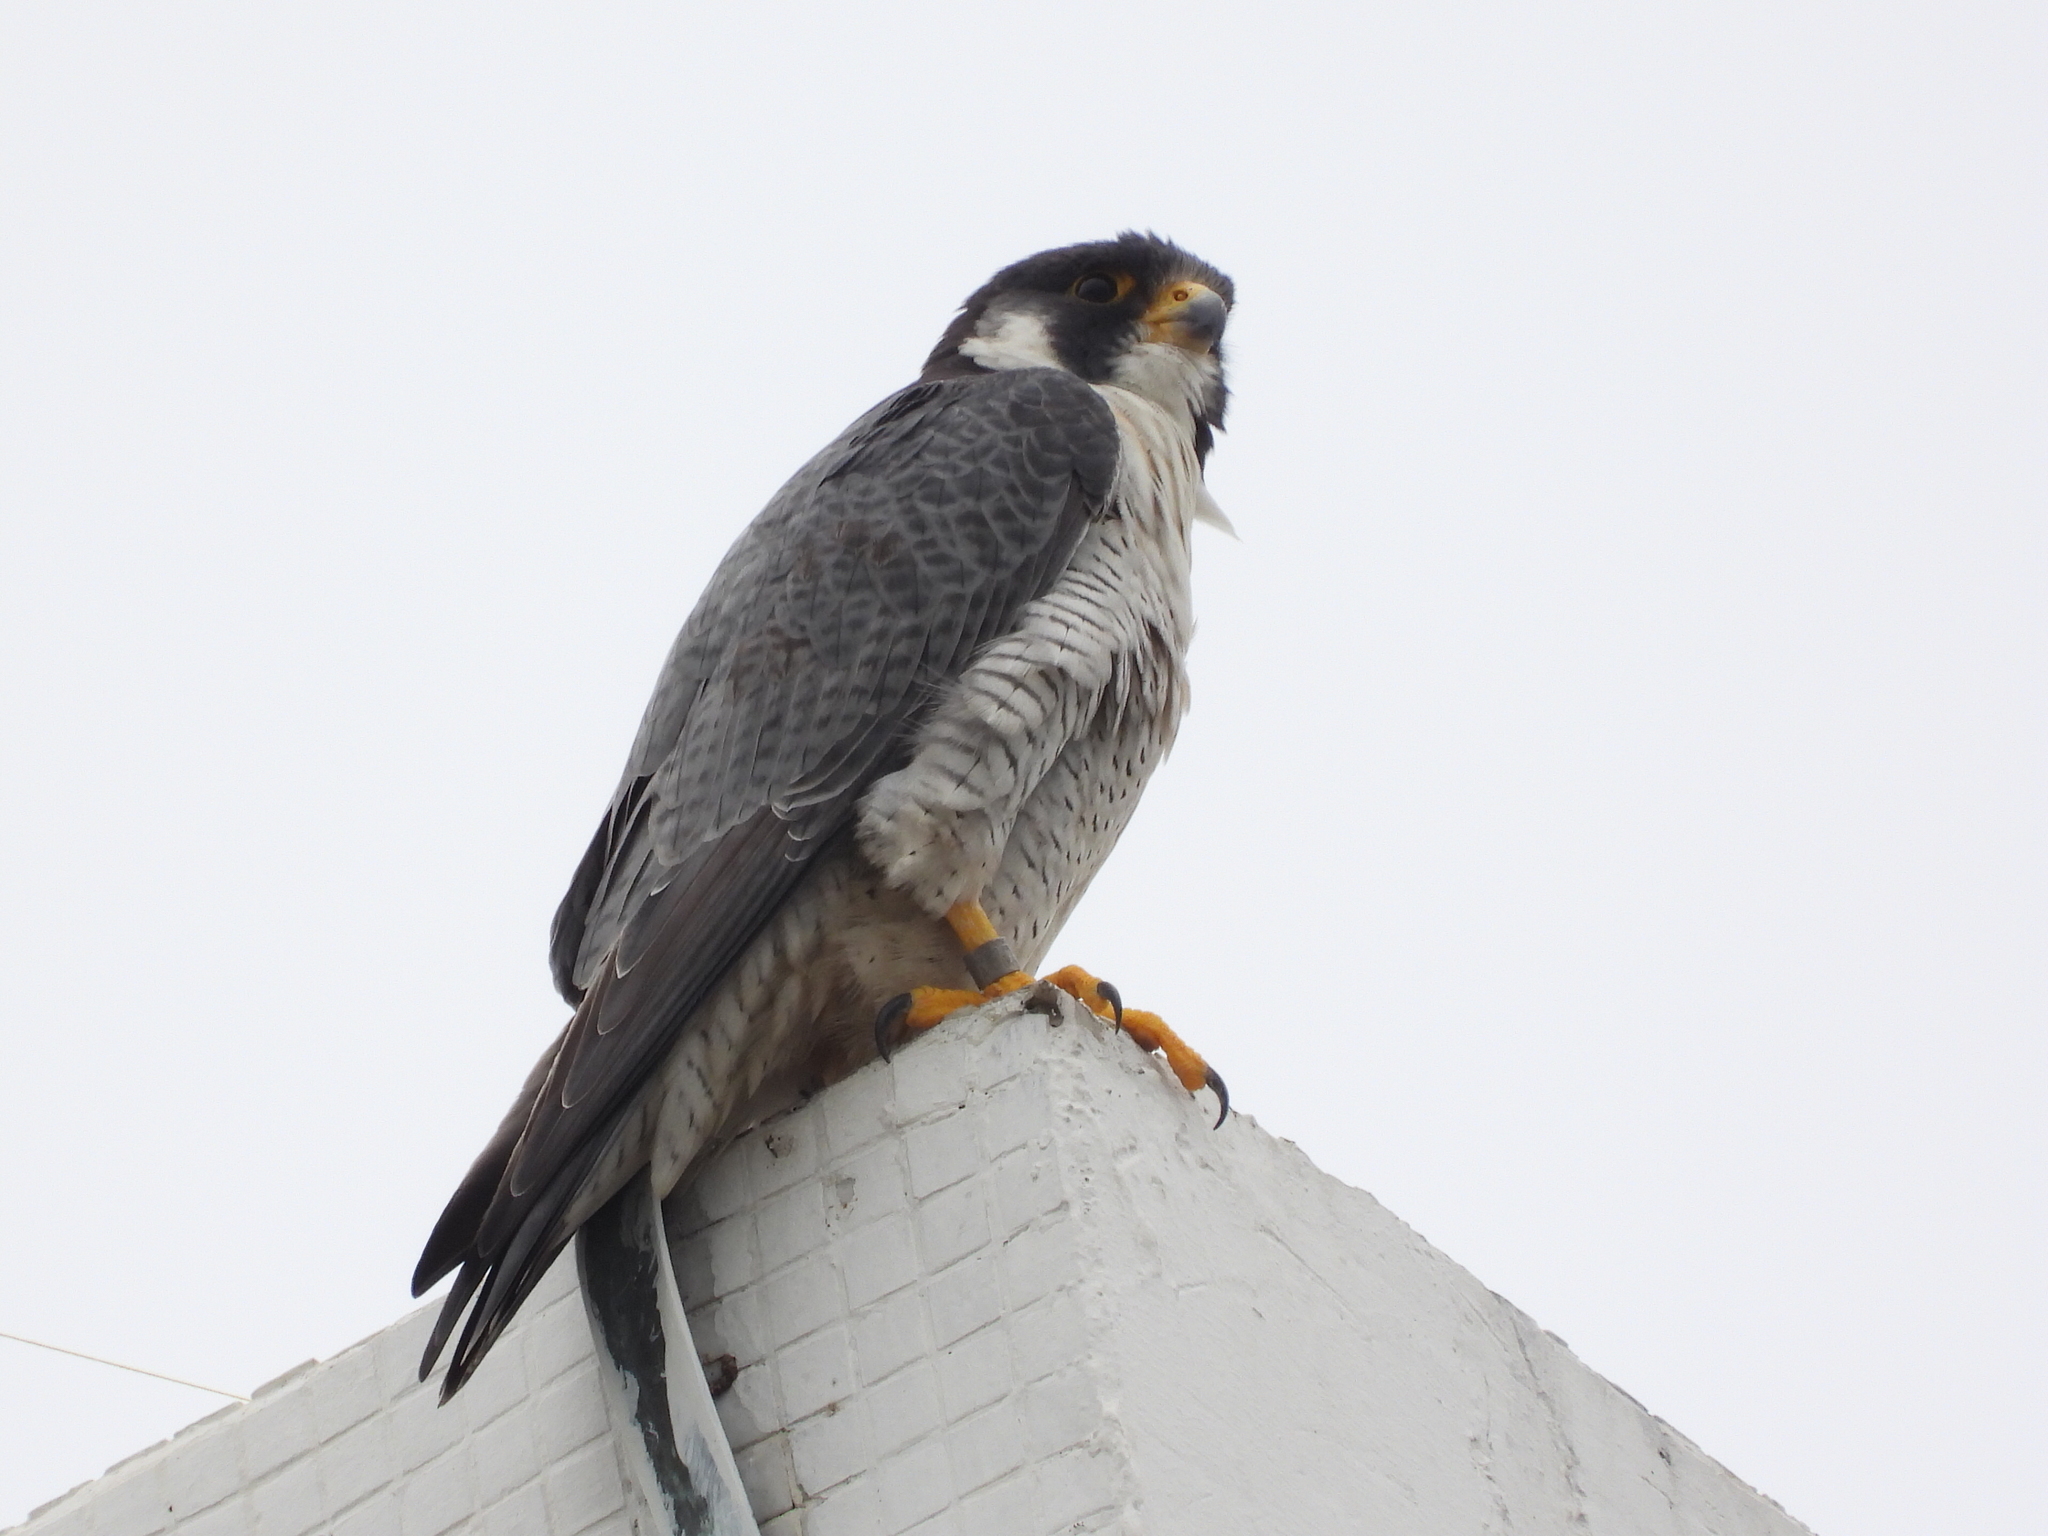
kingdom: Animalia
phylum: Chordata
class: Aves
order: Falconiformes
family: Falconidae
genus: Falco
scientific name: Falco peregrinus
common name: Peregrine falcon
